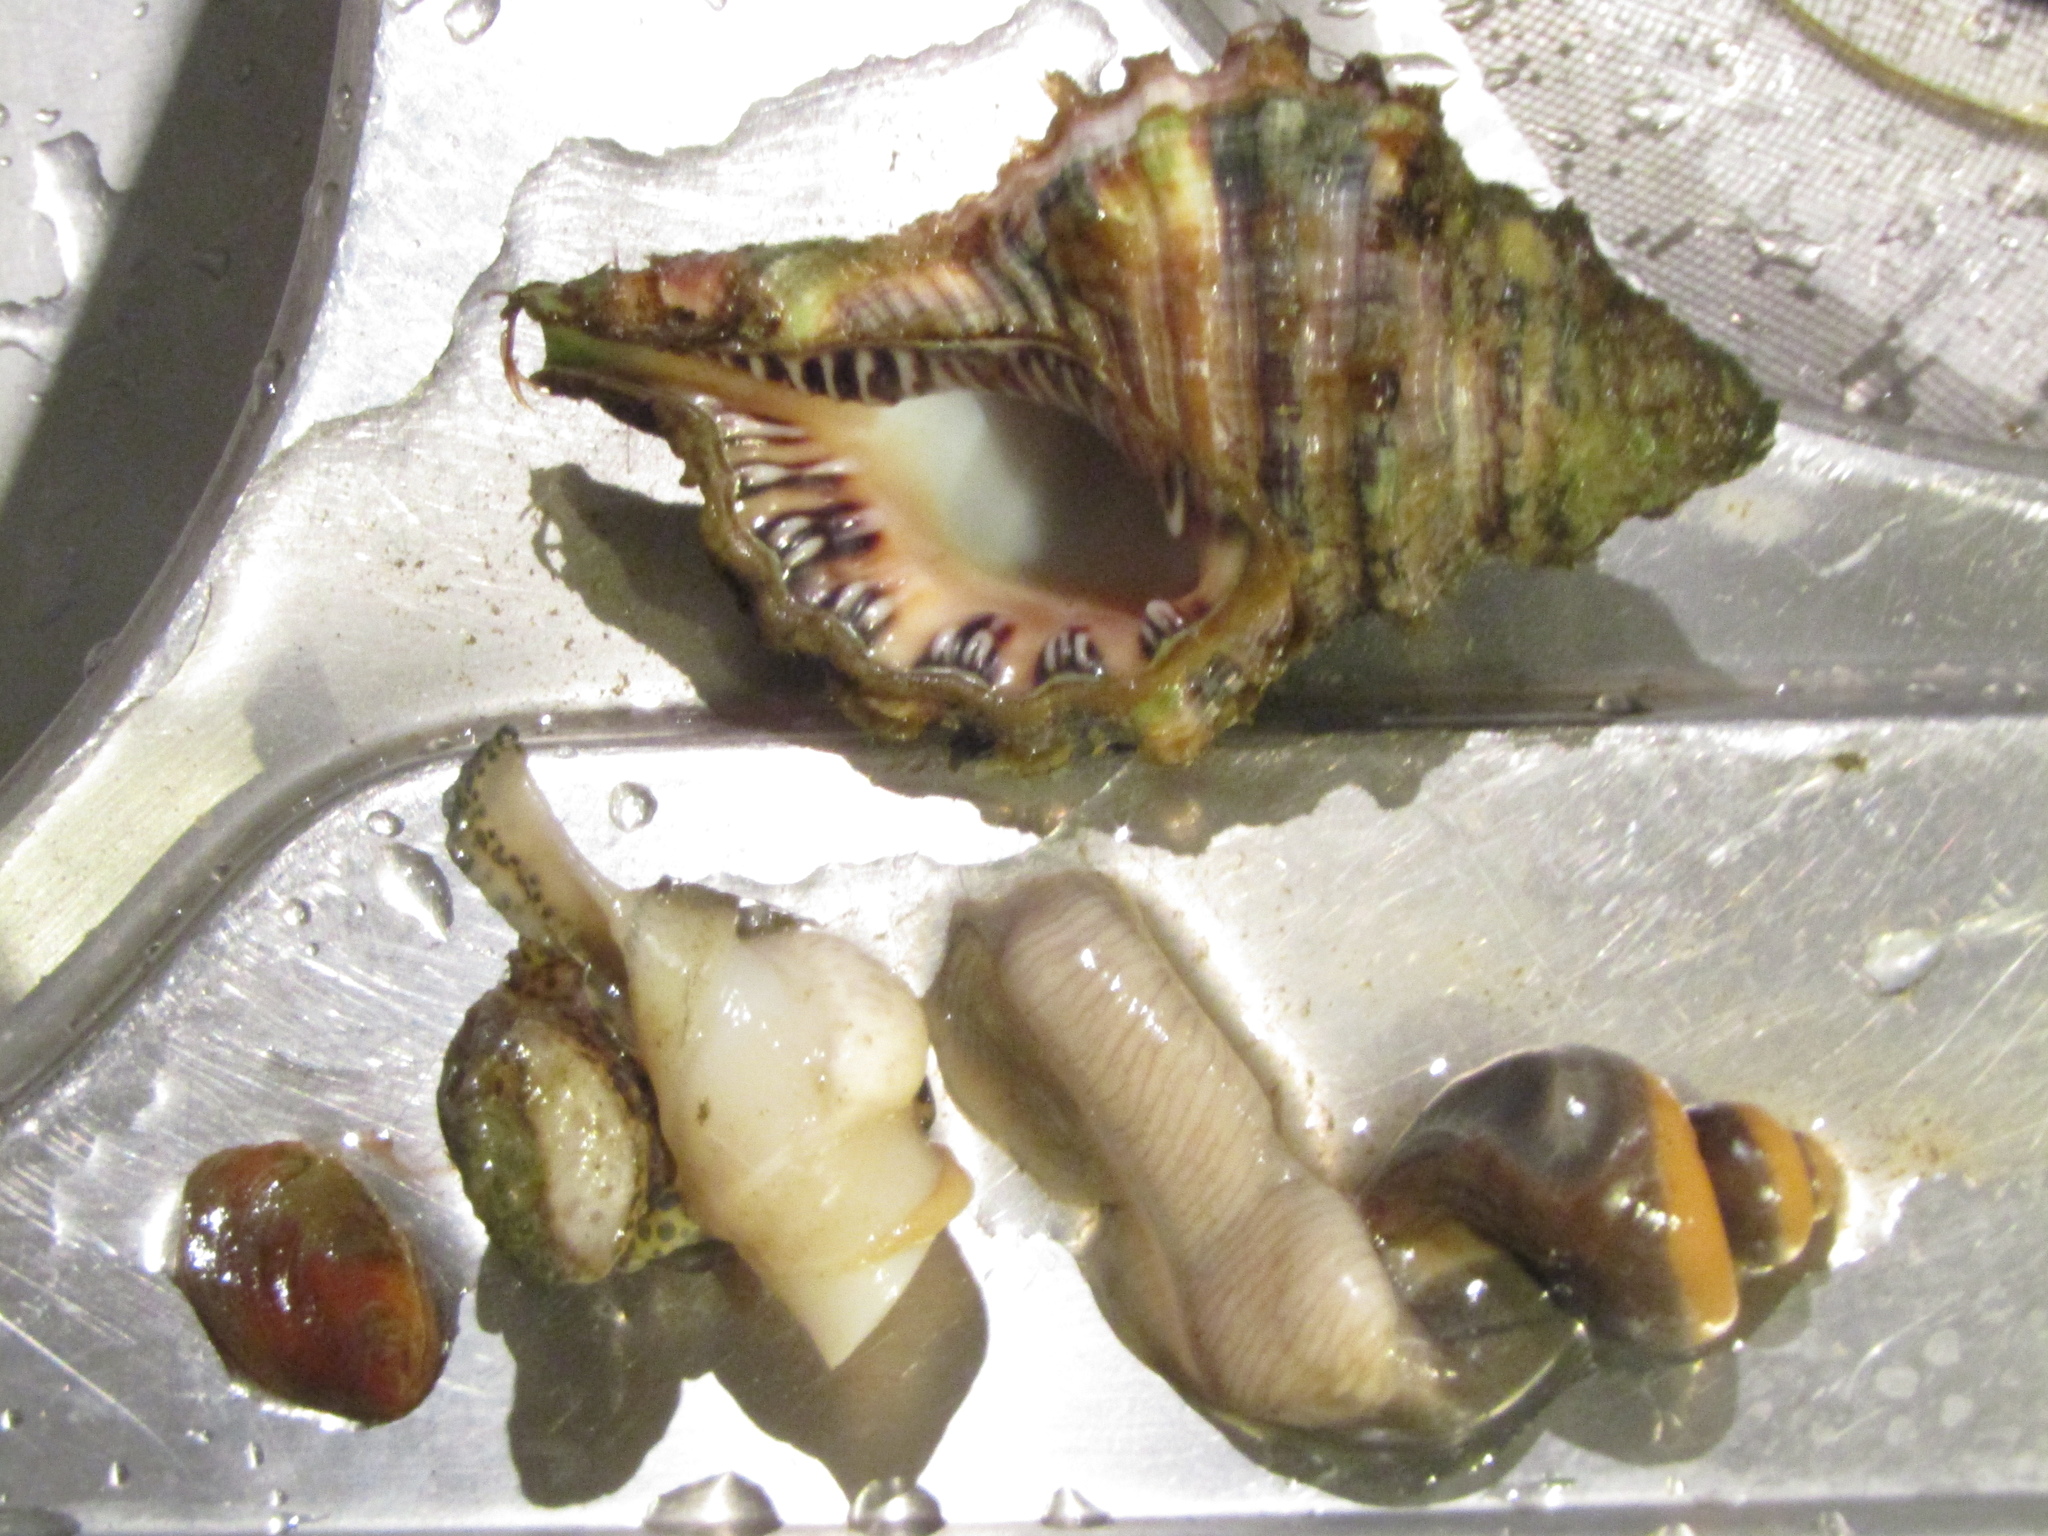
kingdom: Animalia
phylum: Mollusca
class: Gastropoda
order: Littorinimorpha
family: Cymatiidae
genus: Monoplex
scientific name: Monoplex parthenopeus
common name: Giant triton
